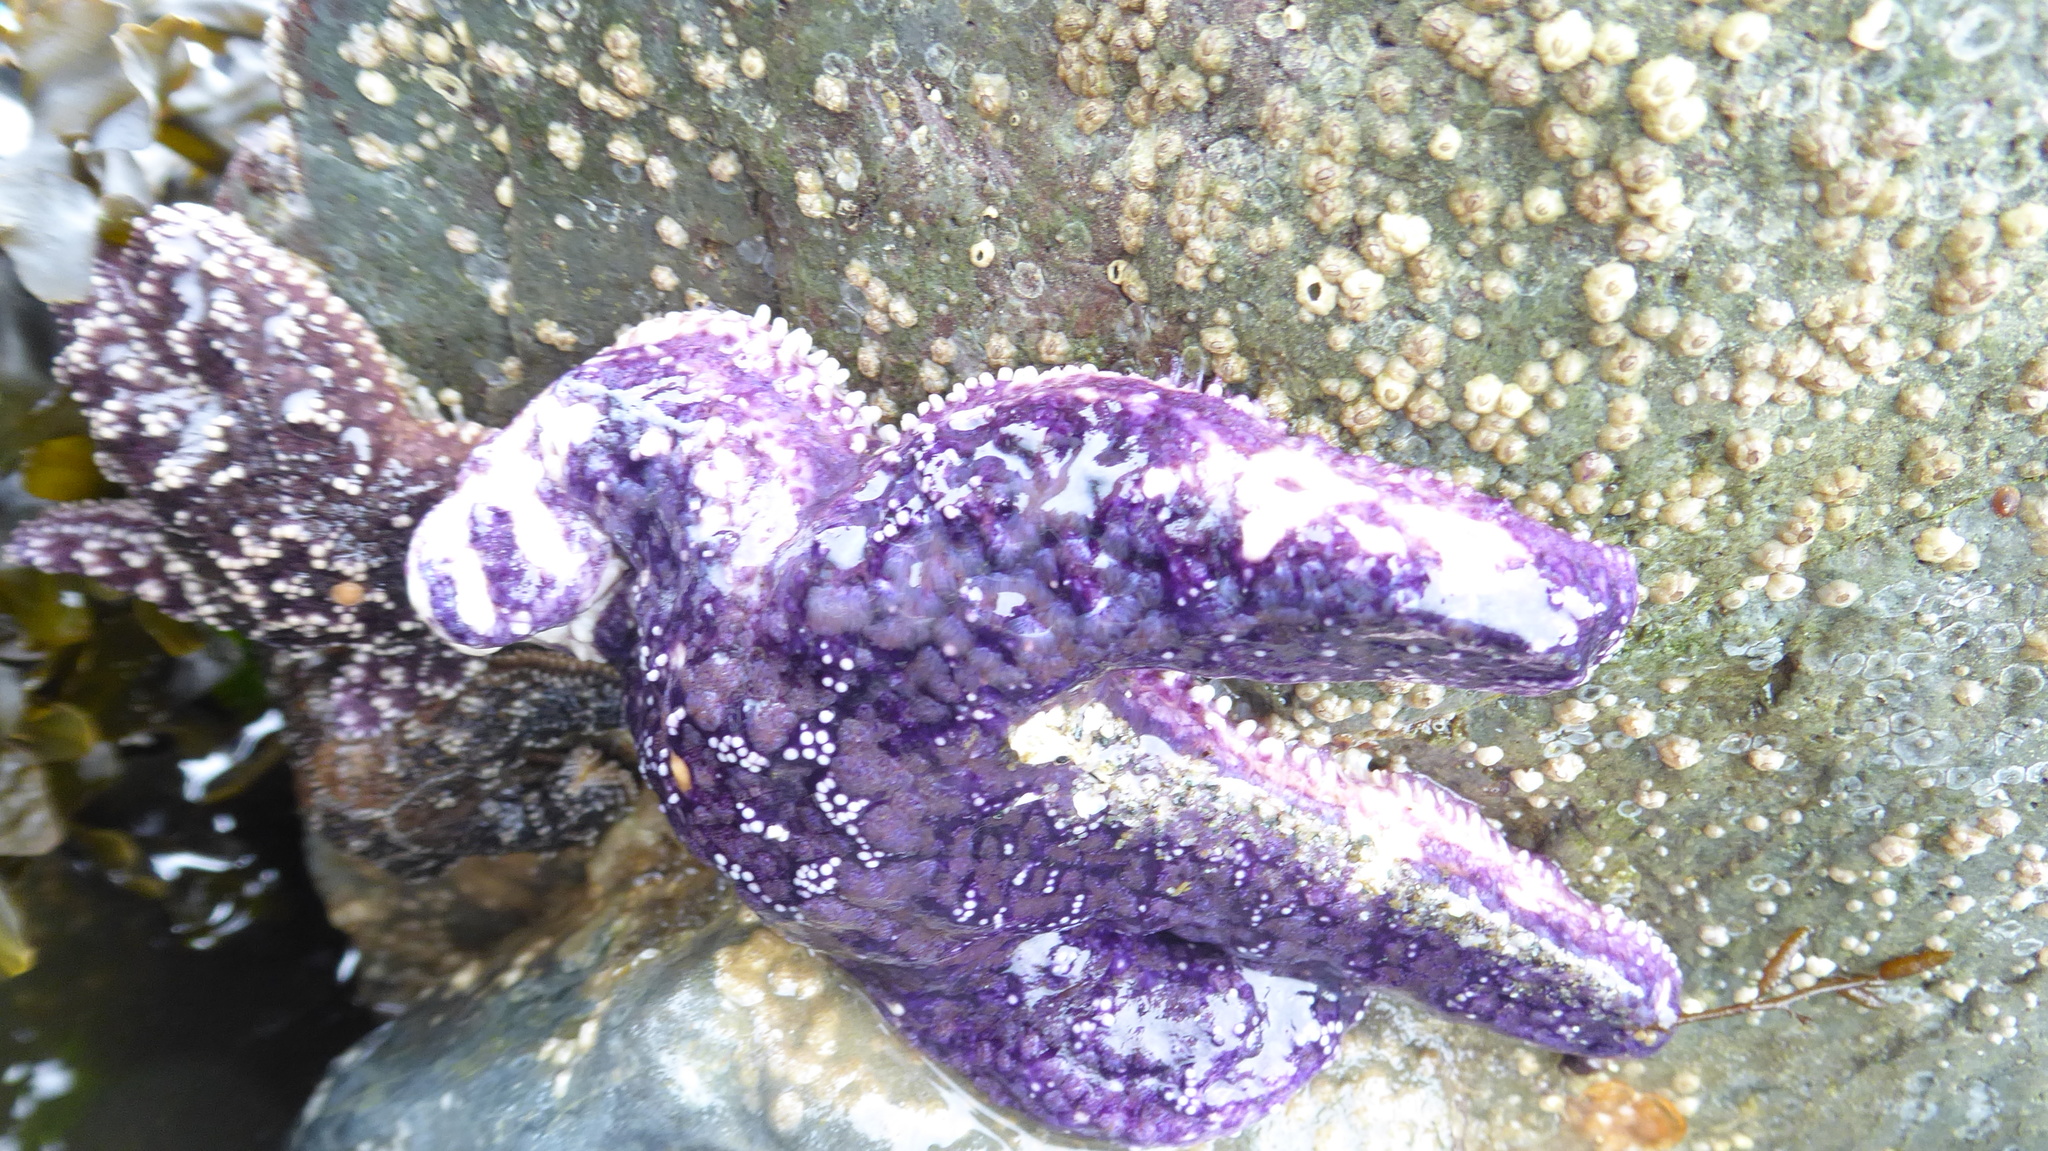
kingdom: Animalia
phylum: Echinodermata
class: Asteroidea
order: Forcipulatida
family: Asteriidae
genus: Pisaster
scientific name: Pisaster ochraceus
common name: Ochre stars
